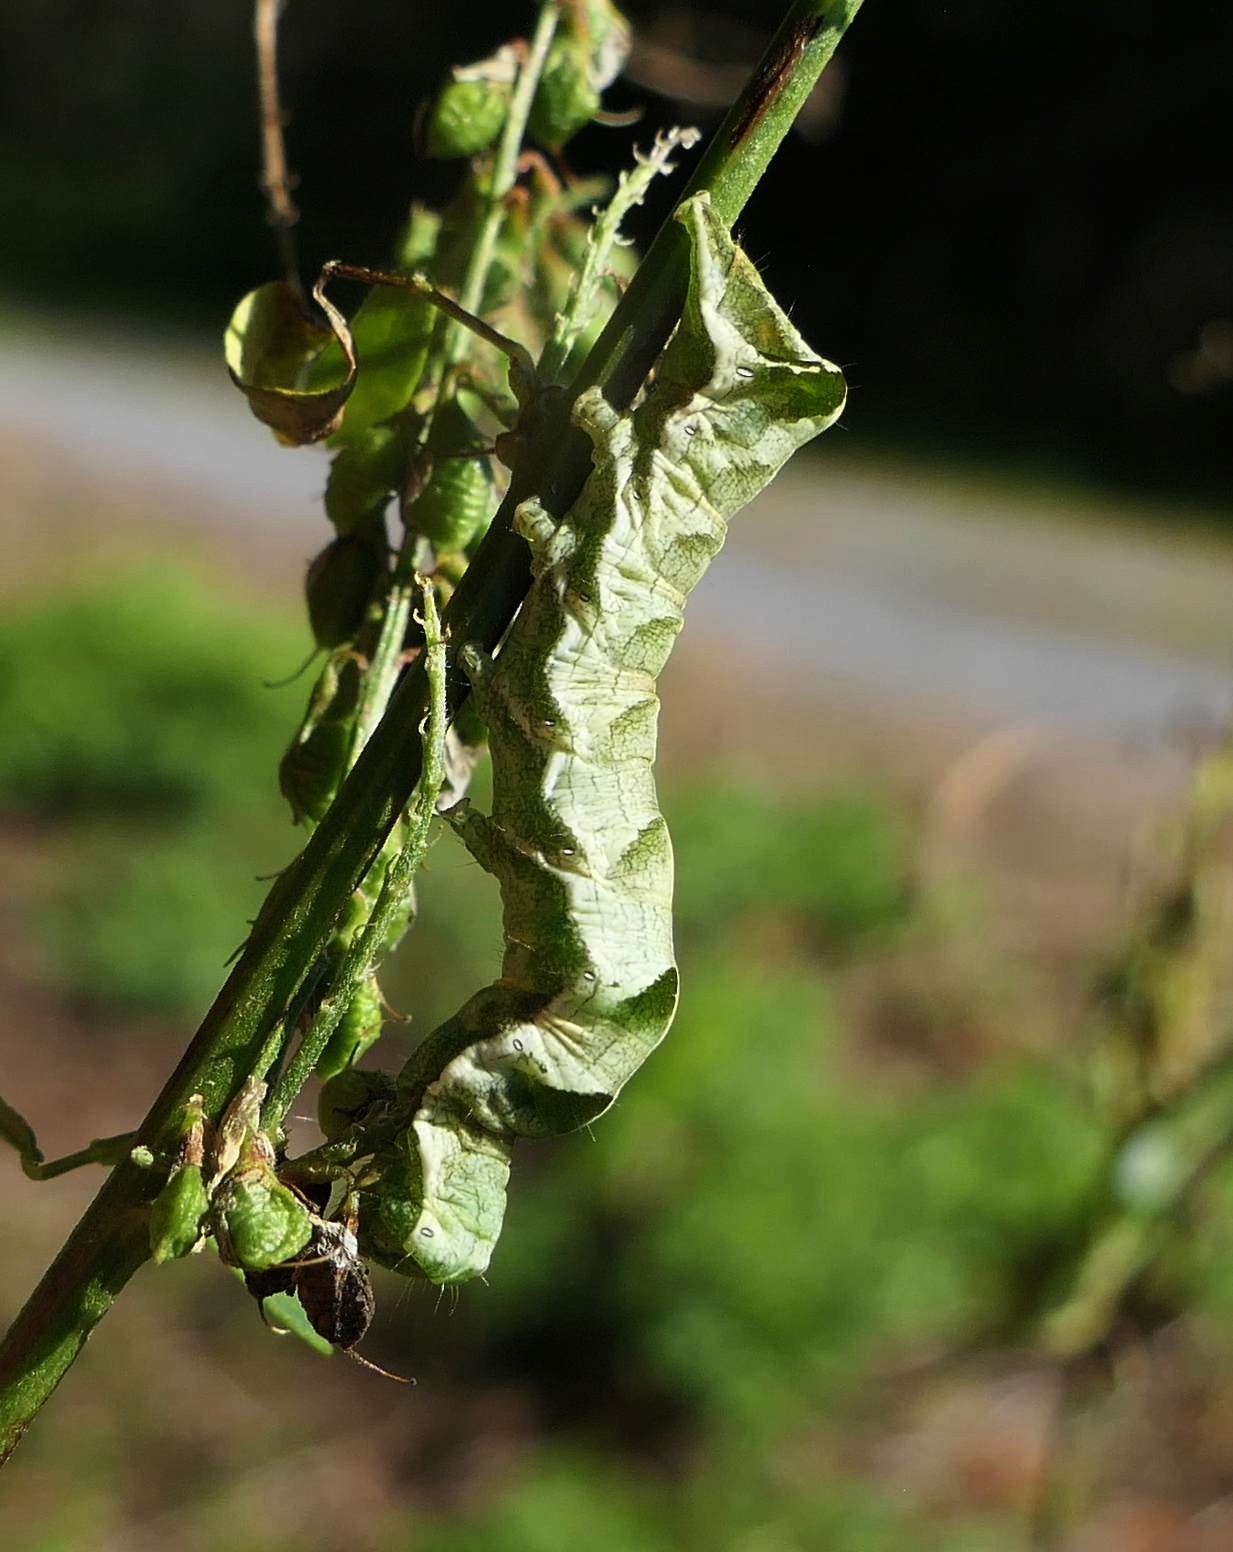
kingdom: Animalia
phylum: Arthropoda
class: Insecta
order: Lepidoptera
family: Noctuidae
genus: Melanchra
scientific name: Melanchra adjuncta
